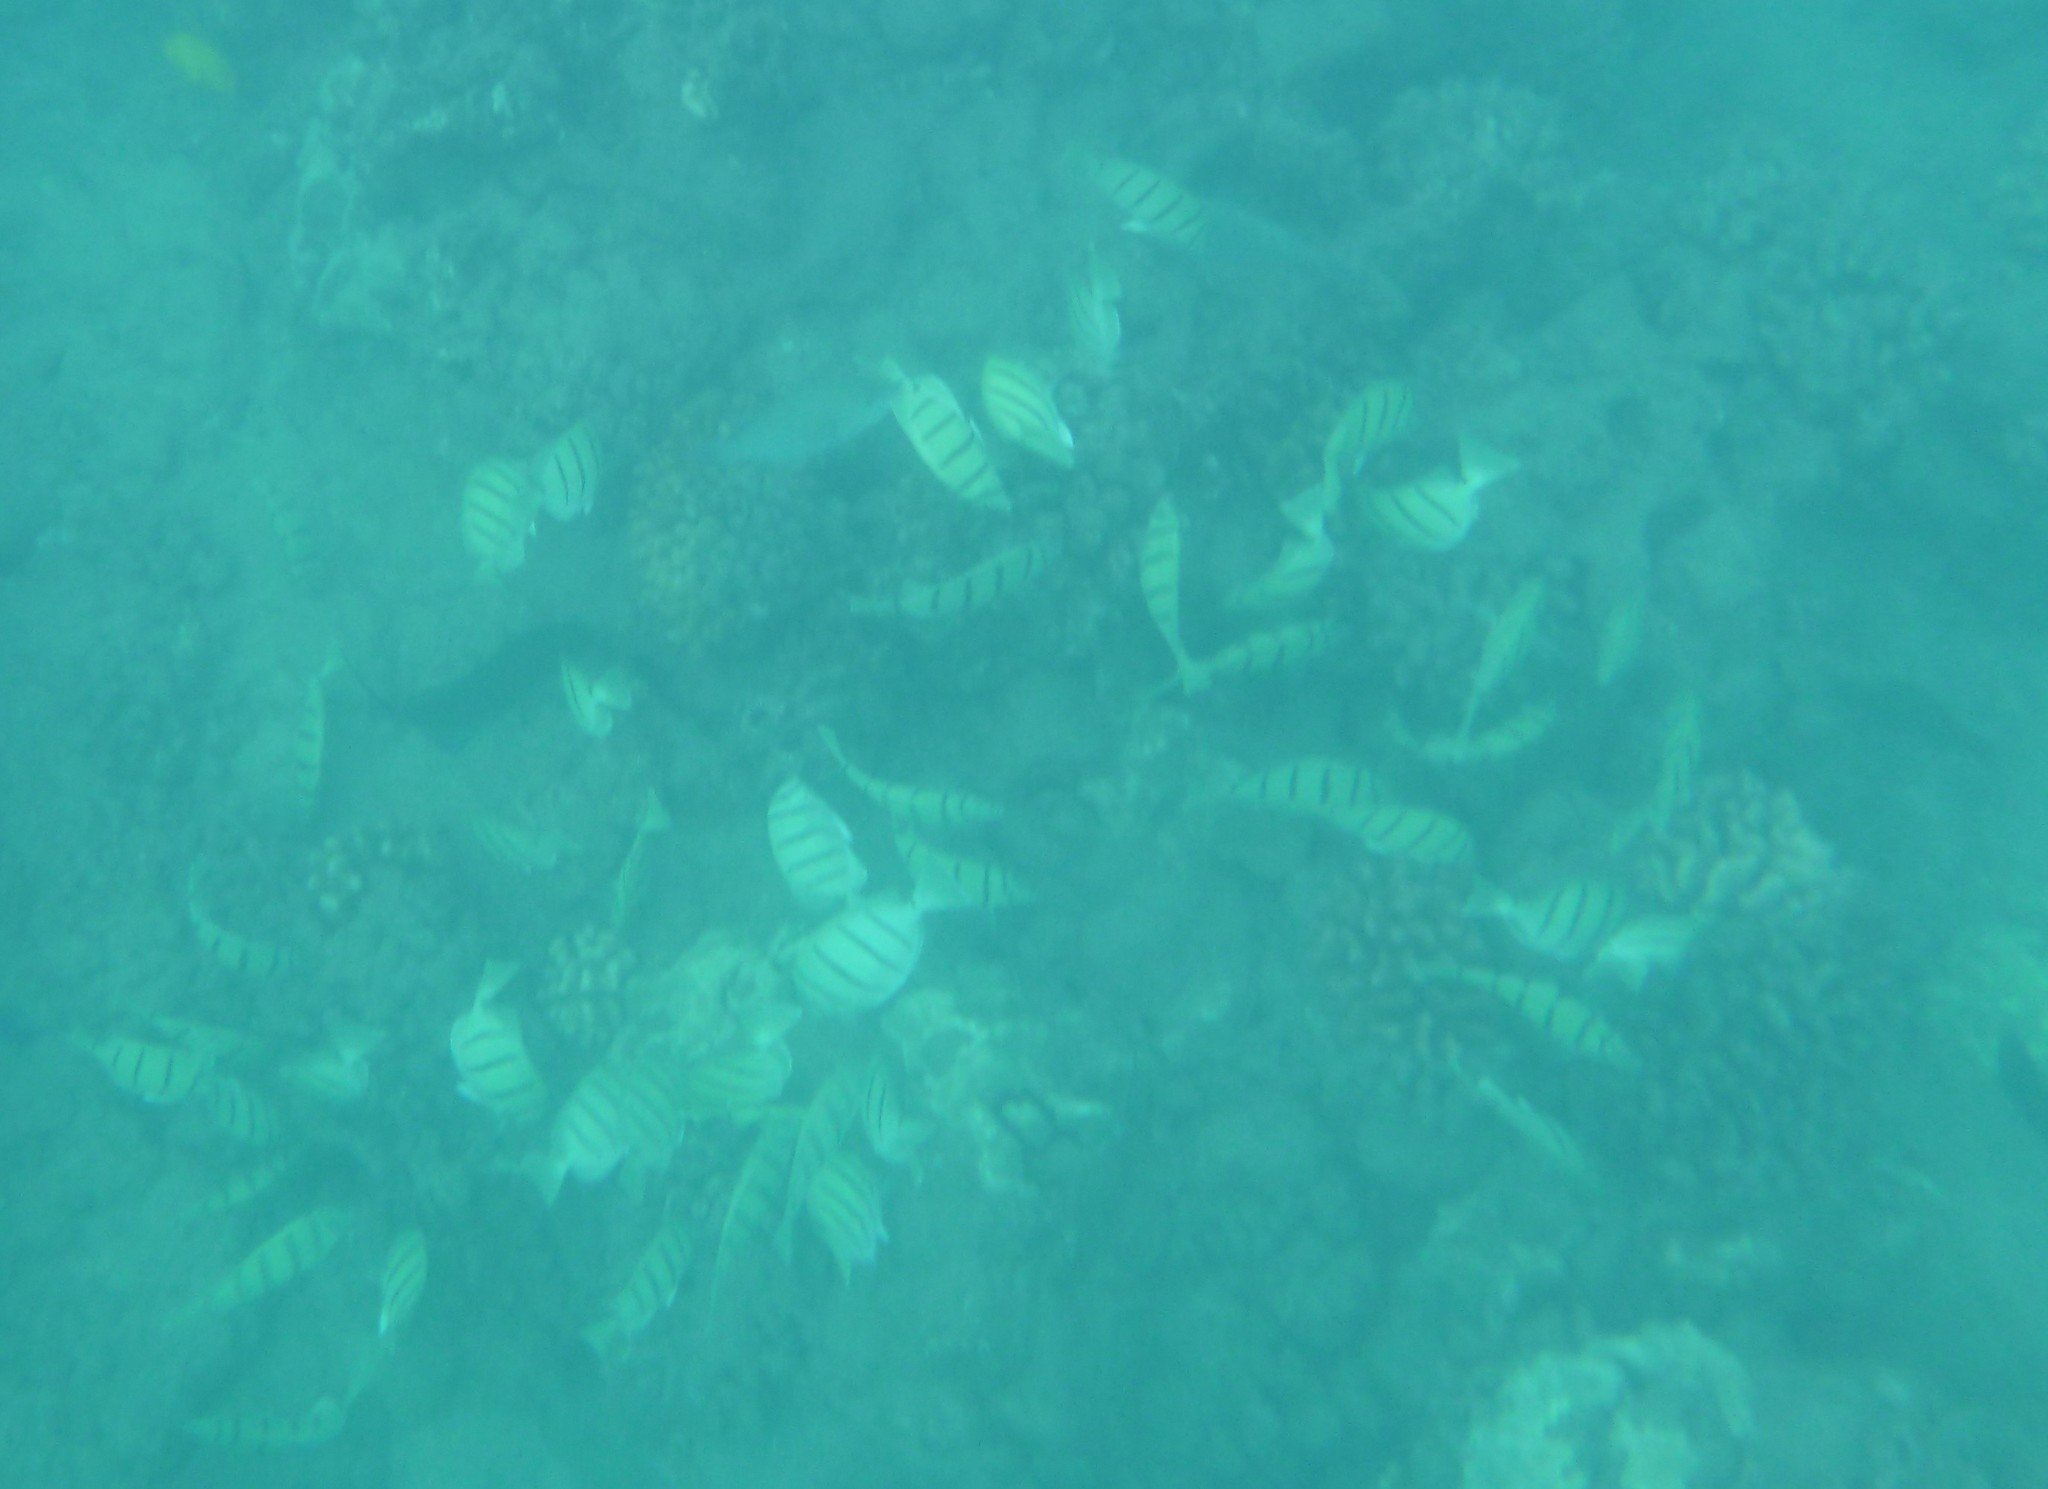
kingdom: Animalia
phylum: Chordata
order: Perciformes
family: Acanthuridae
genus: Acanthurus
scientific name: Acanthurus triostegus
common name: Convict surgeonfish
